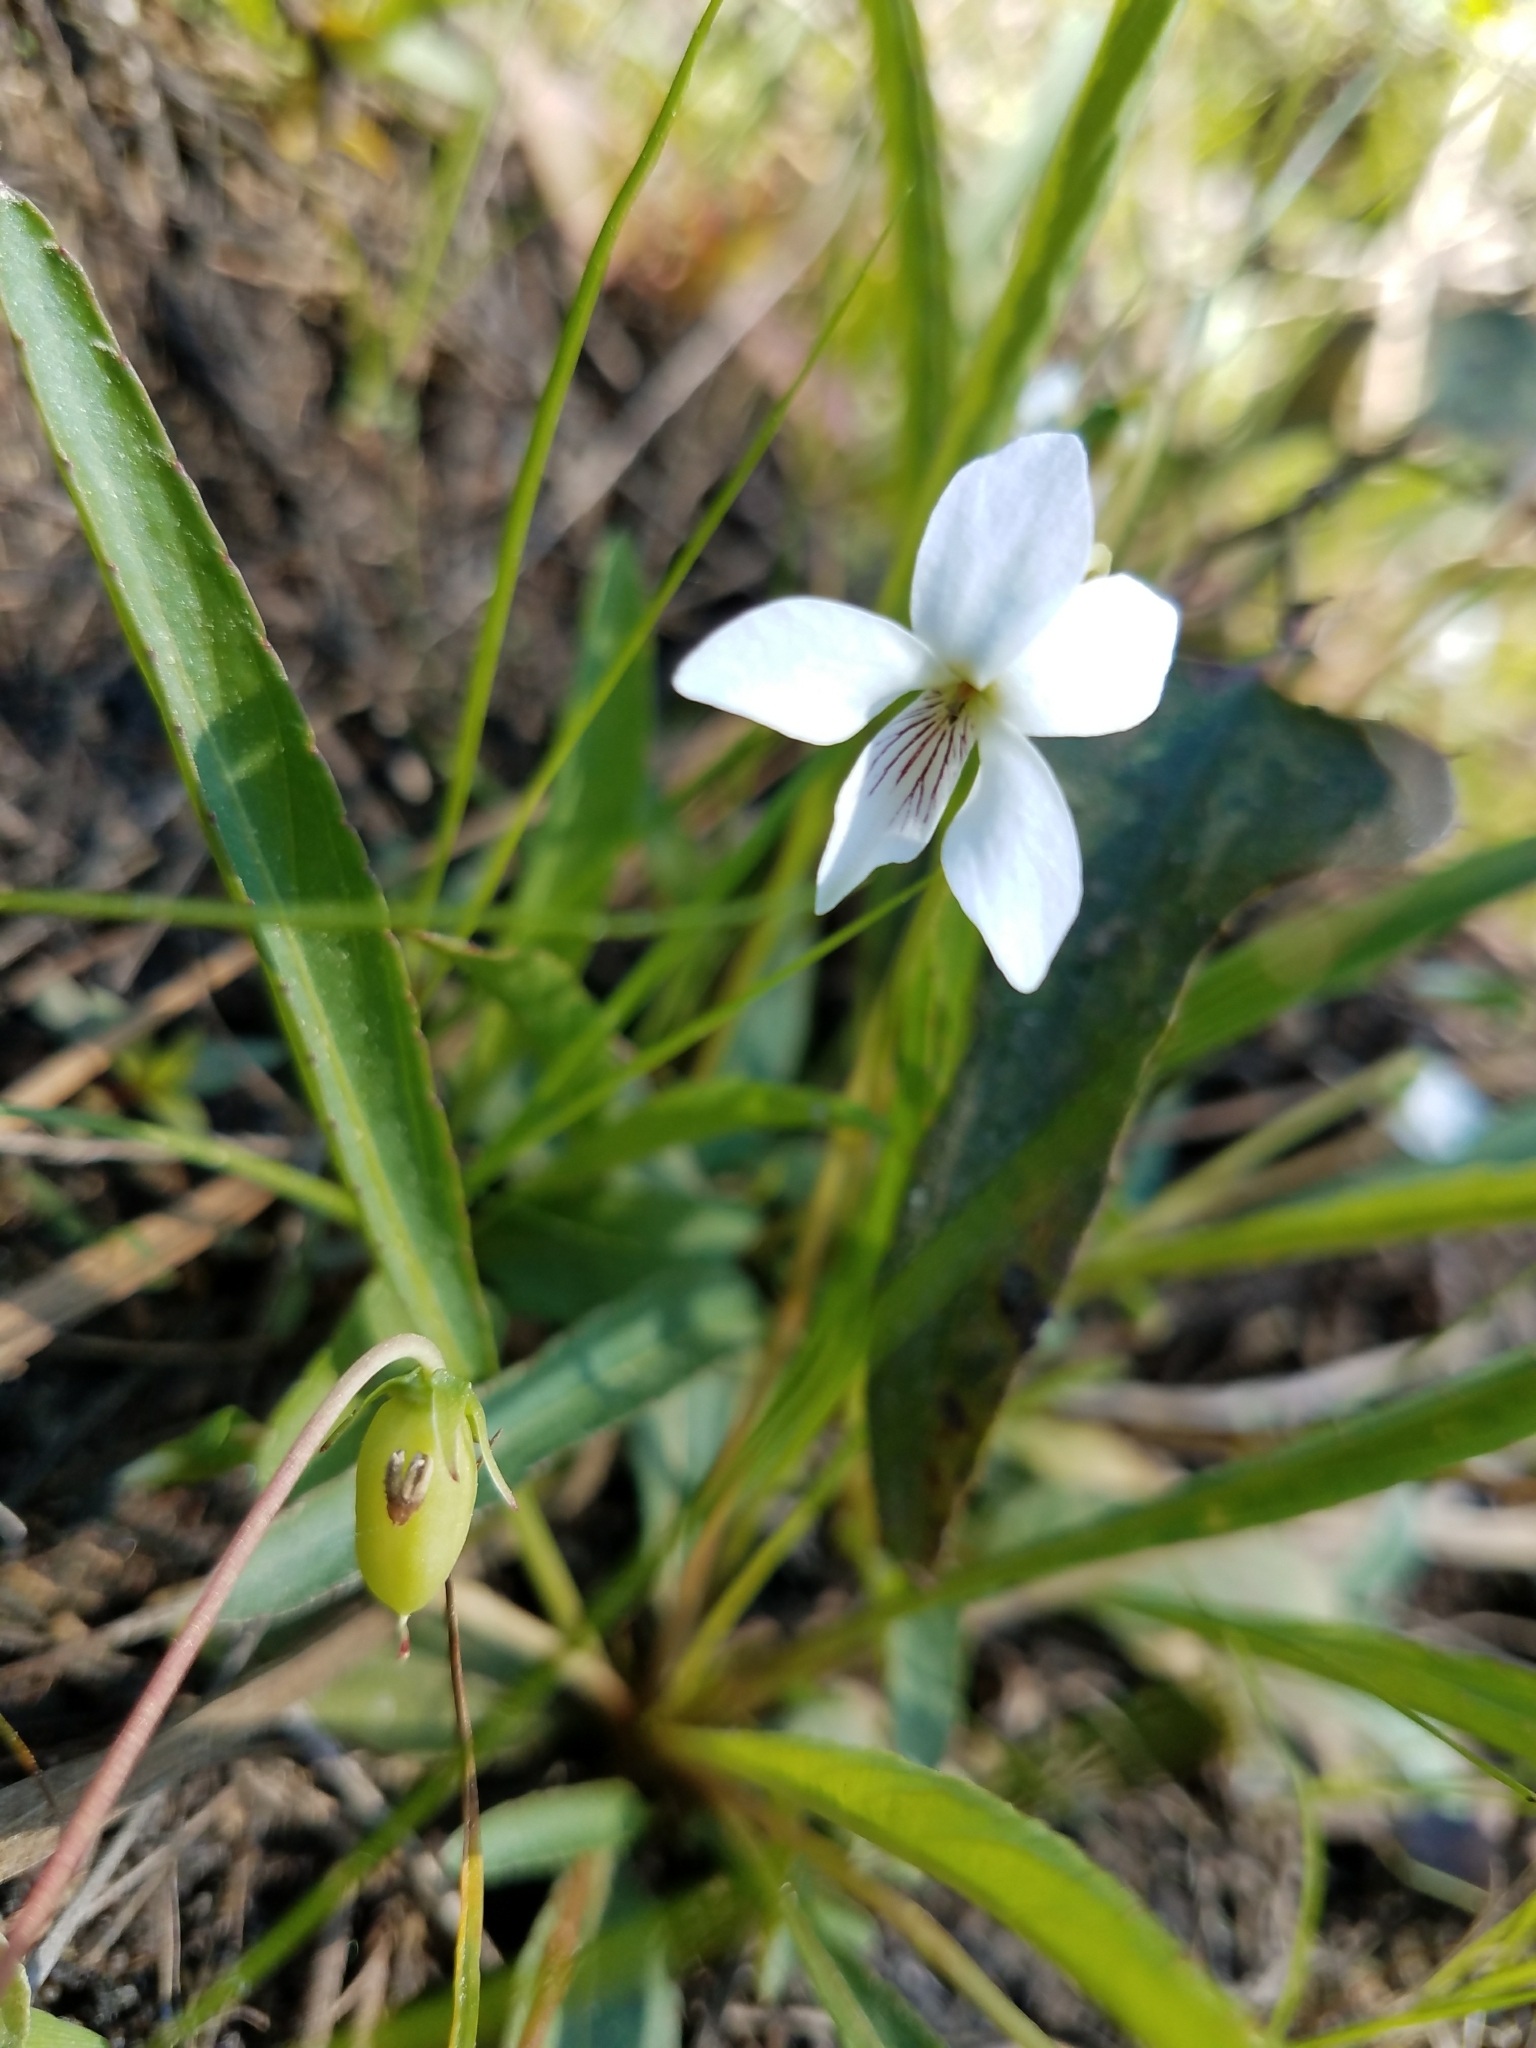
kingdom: Plantae
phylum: Tracheophyta
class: Magnoliopsida
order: Malpighiales
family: Violaceae
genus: Viola
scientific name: Viola vittata
